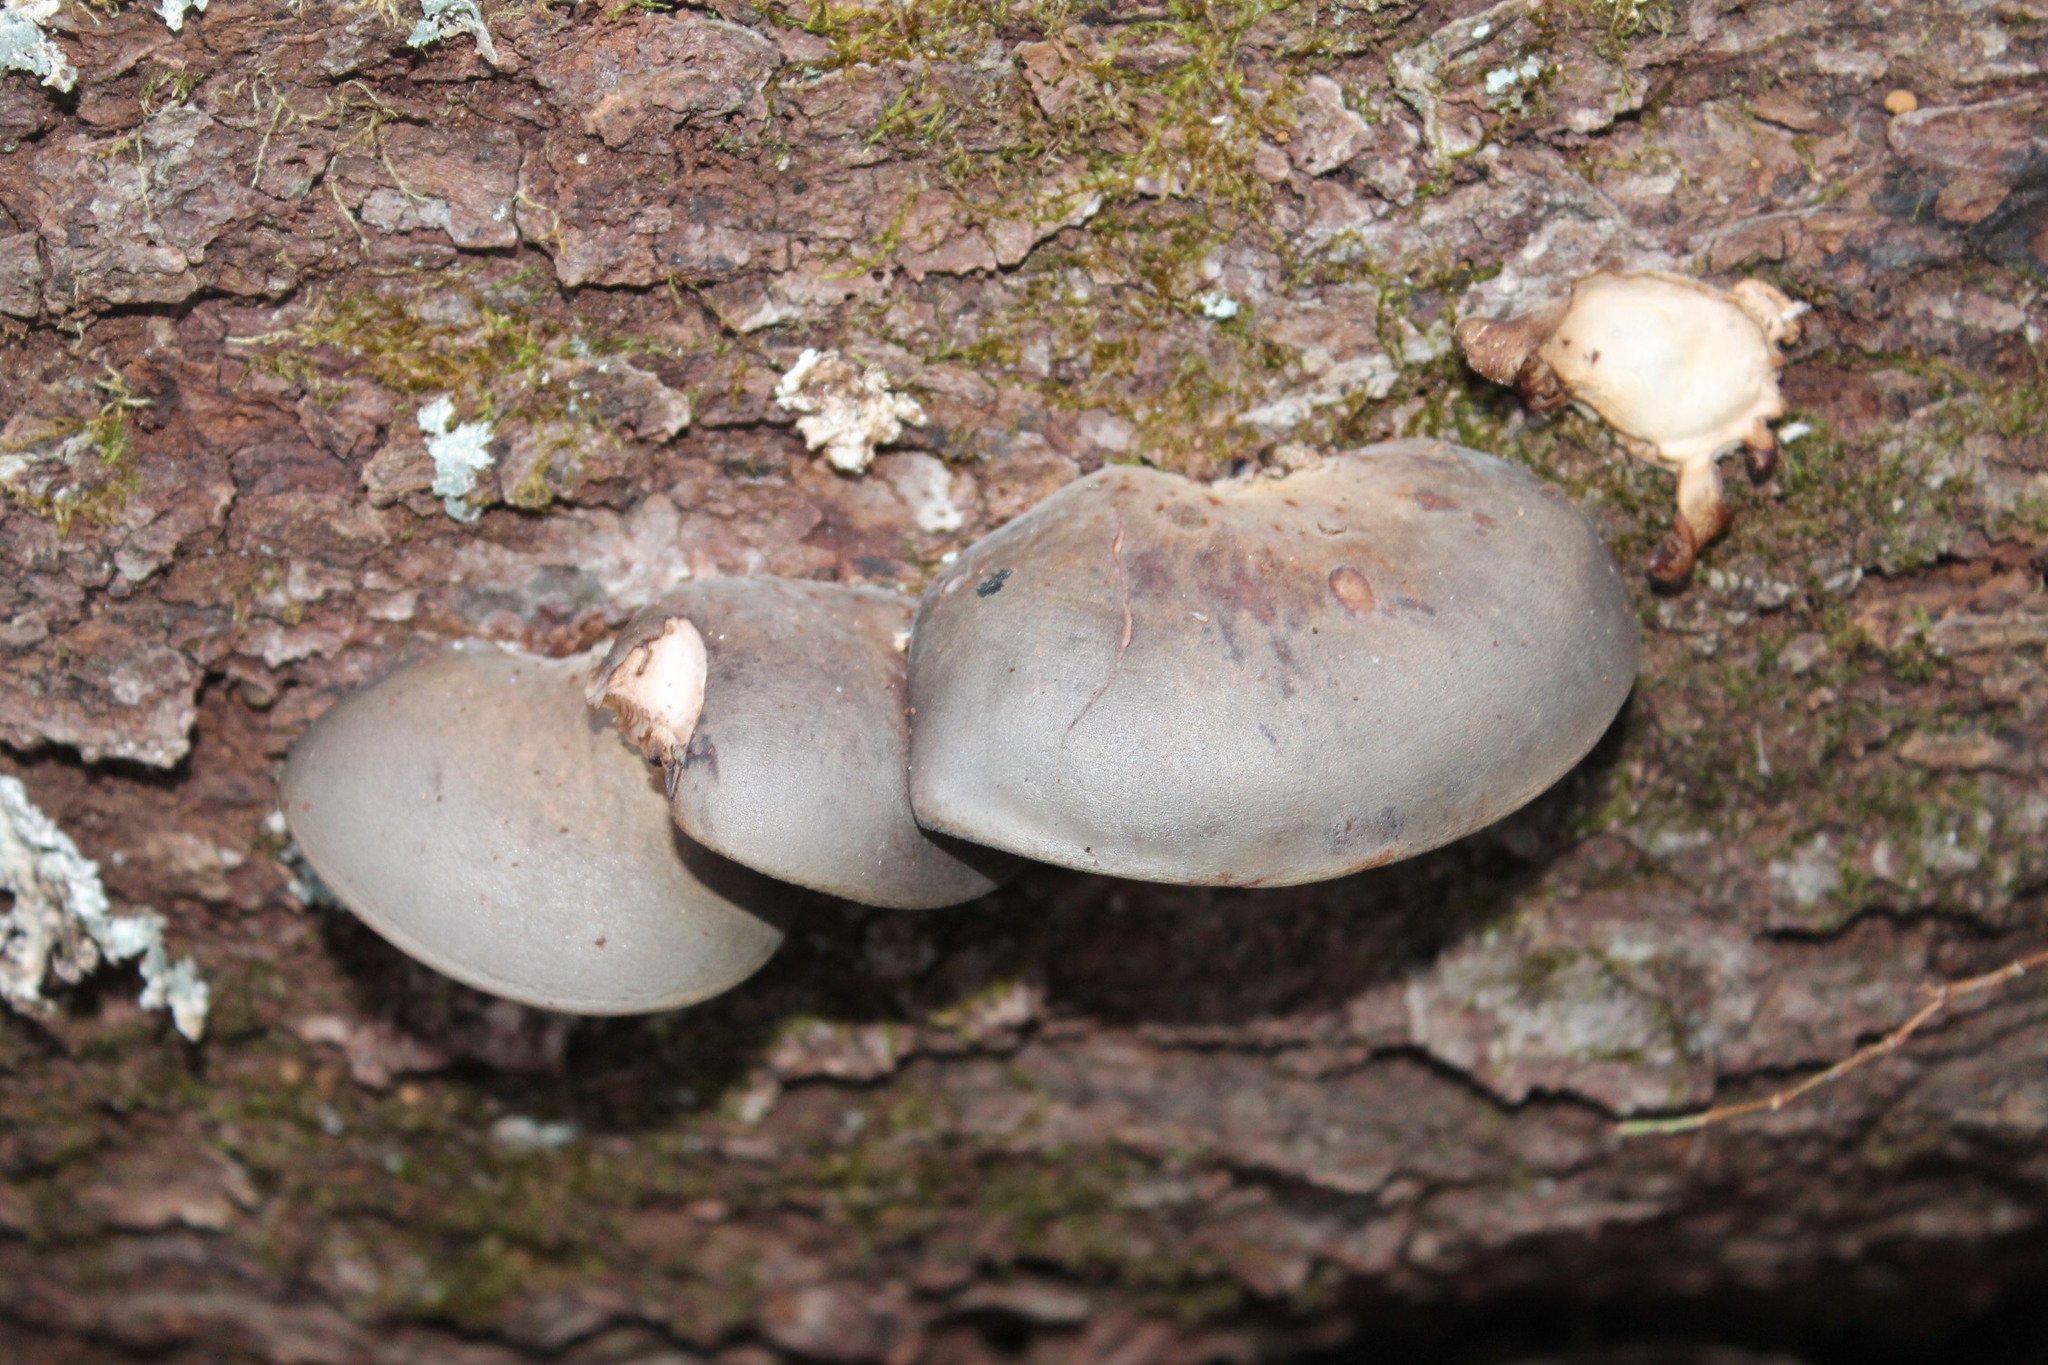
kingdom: Fungi
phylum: Basidiomycota
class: Agaricomycetes
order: Agaricales
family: Sarcomyxaceae
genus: Sarcomyxa
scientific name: Sarcomyxa serotina
